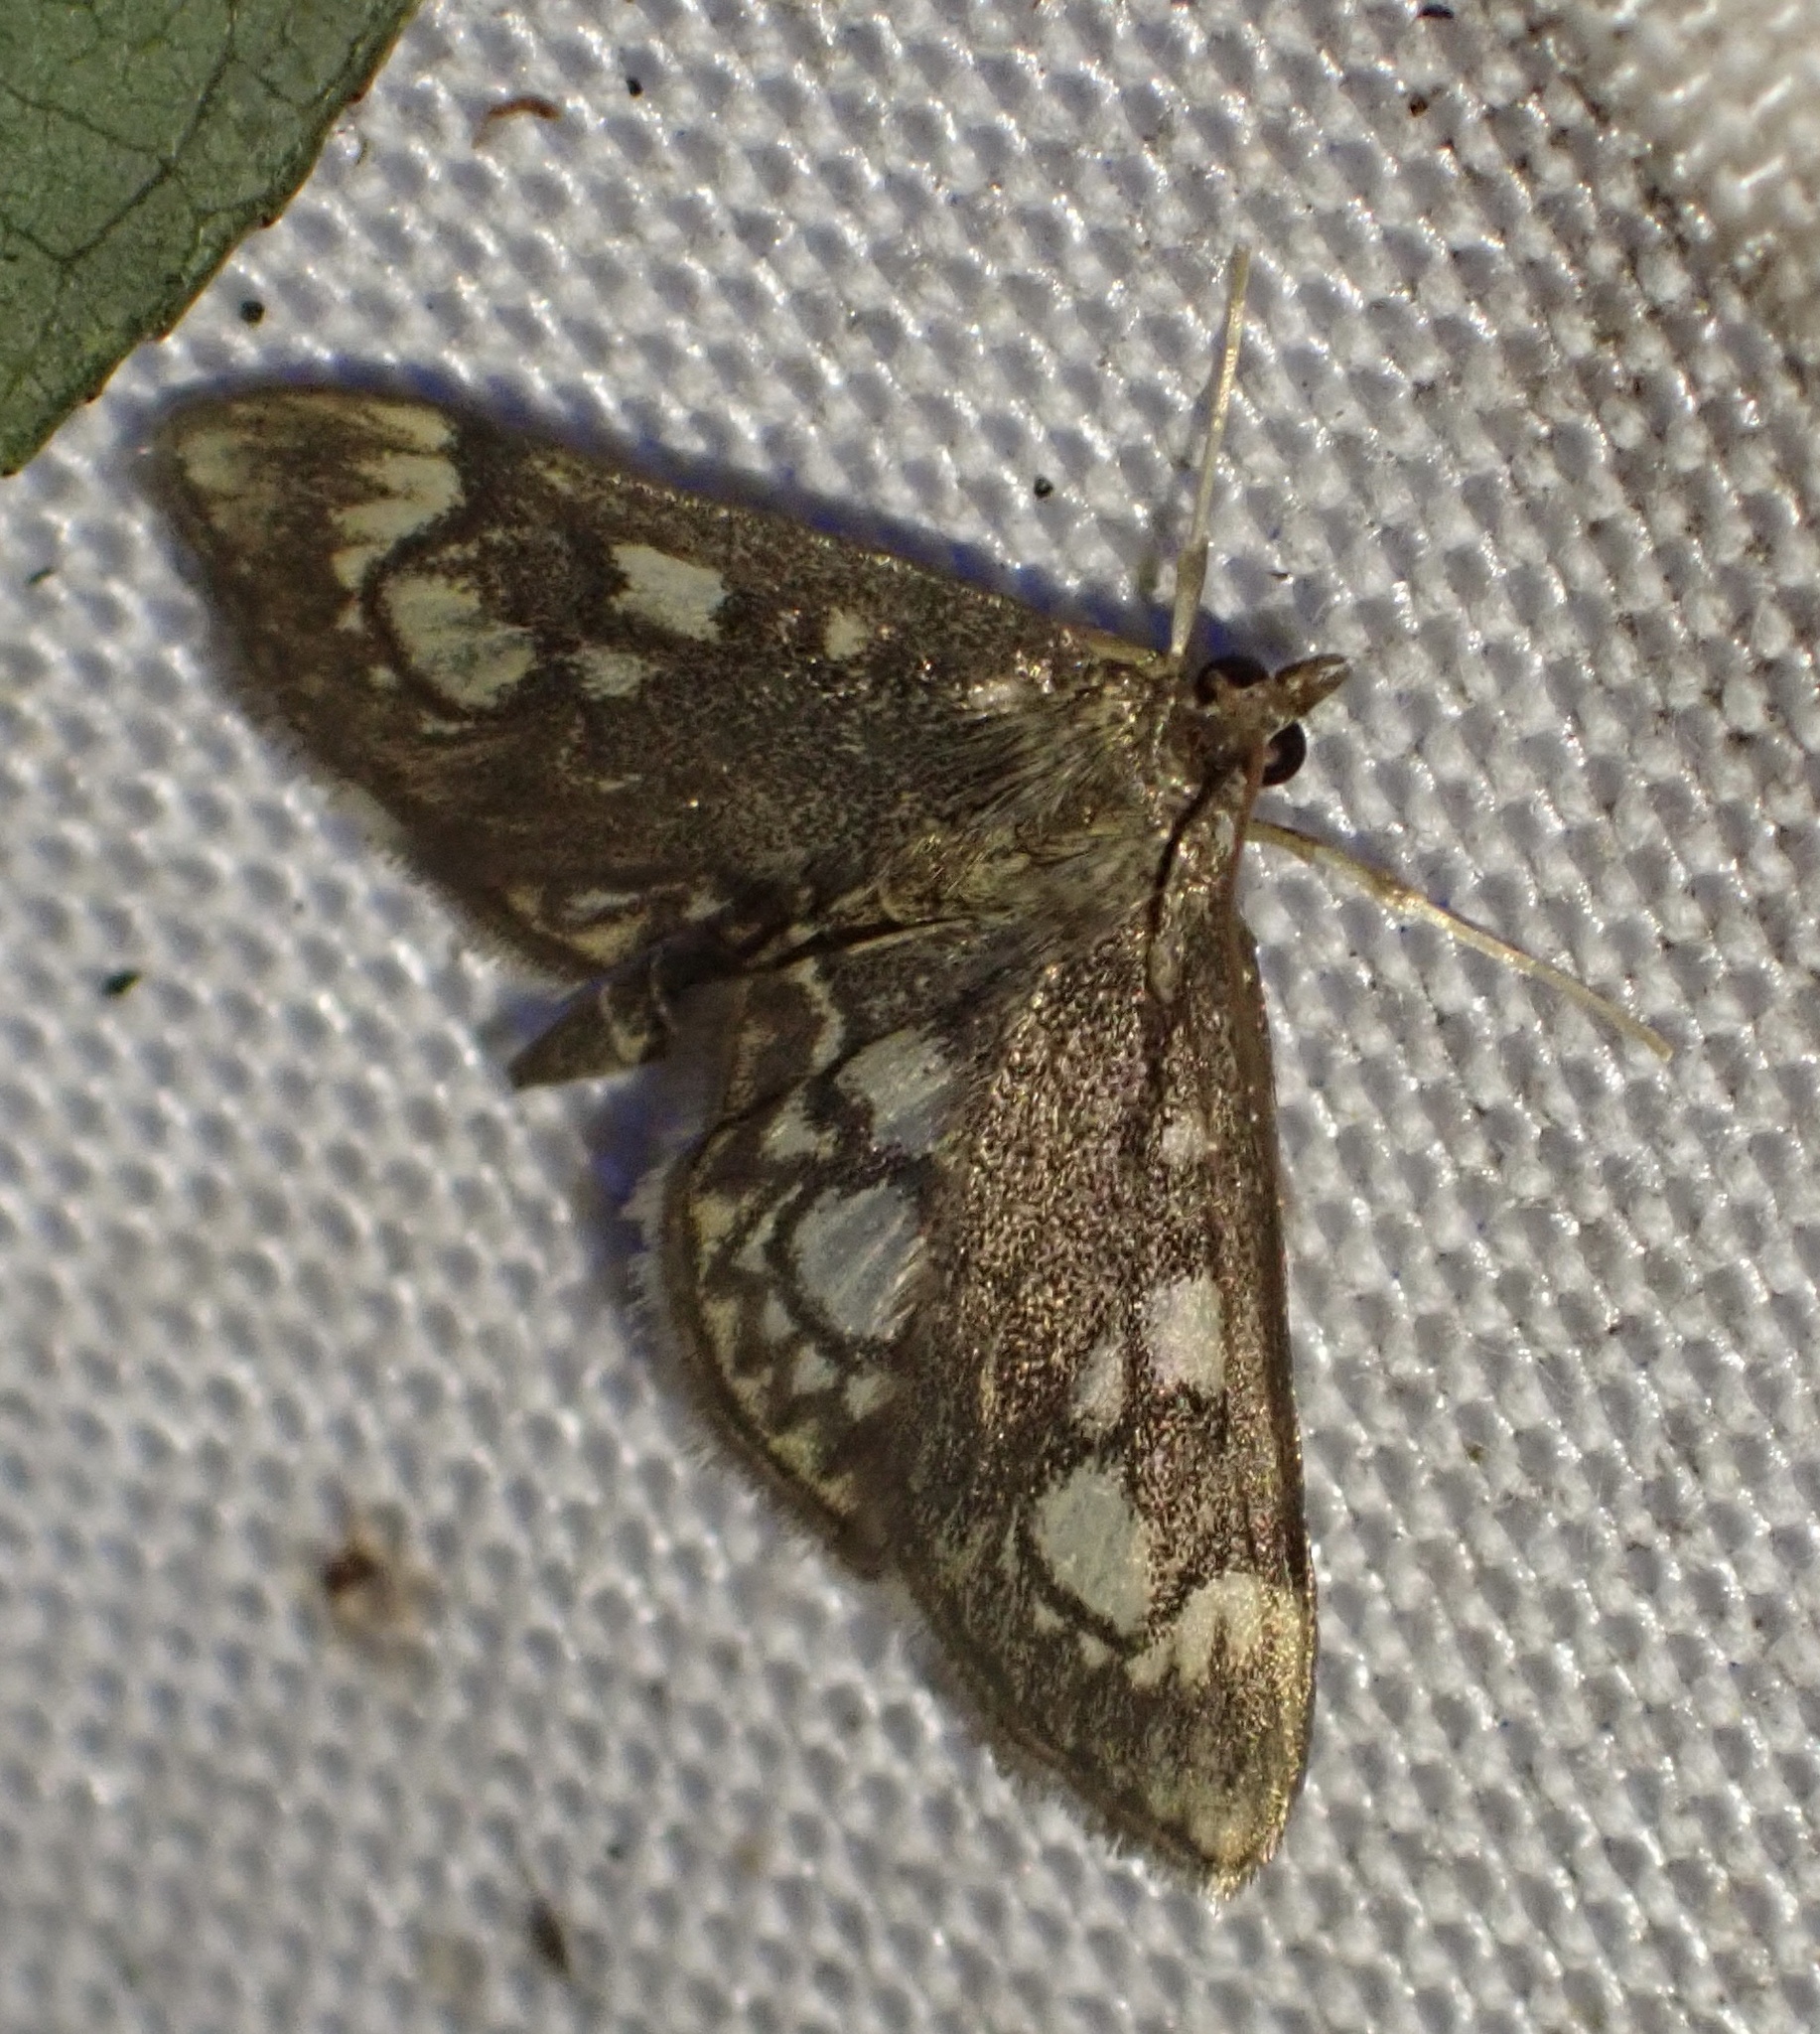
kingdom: Animalia
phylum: Arthropoda
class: Insecta
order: Lepidoptera
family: Crambidae
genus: Anania
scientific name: Anania coronata
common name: Elder pearl
